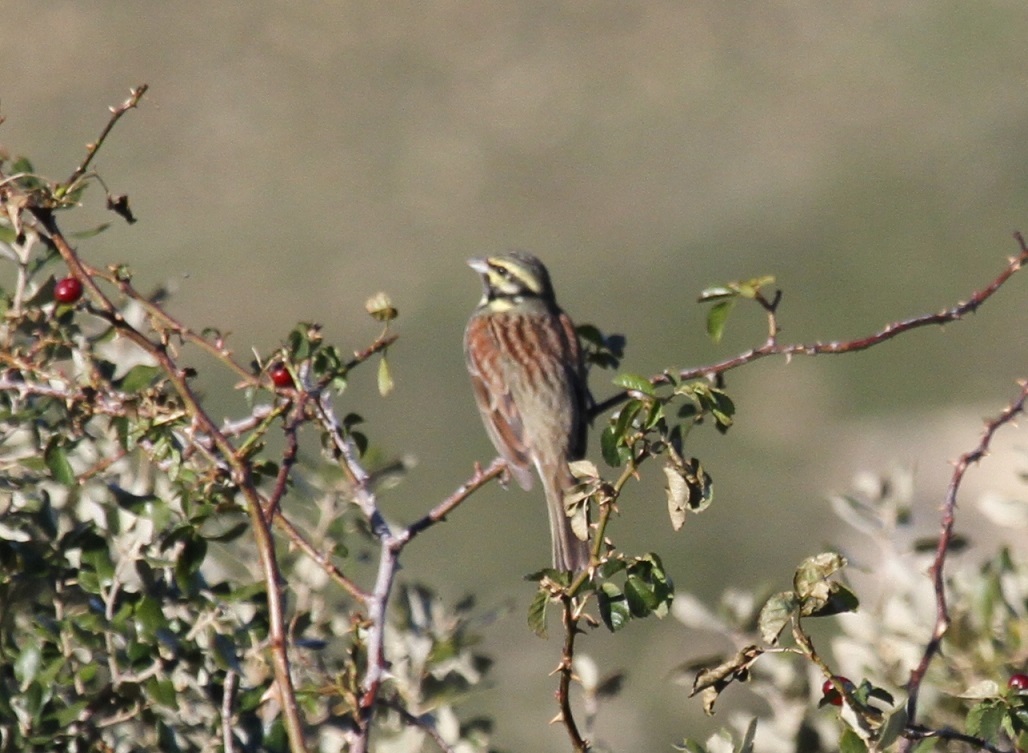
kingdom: Animalia
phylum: Chordata
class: Aves
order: Passeriformes
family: Emberizidae
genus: Emberiza
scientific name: Emberiza cirlus
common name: Cirl bunting
